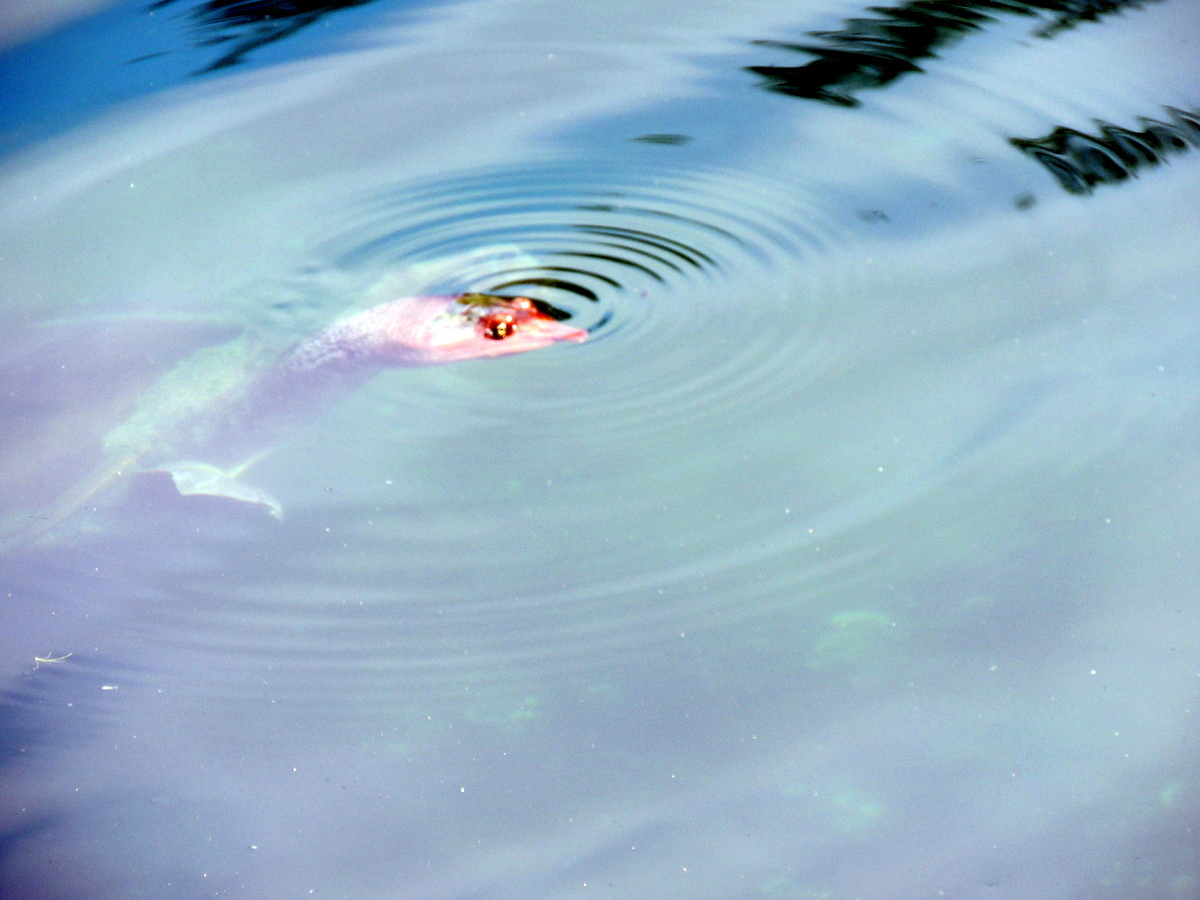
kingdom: Animalia
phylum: Chordata
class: Testudines
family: Trionychidae
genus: Apalone
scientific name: Apalone ferox
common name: Florida softshell turtle
